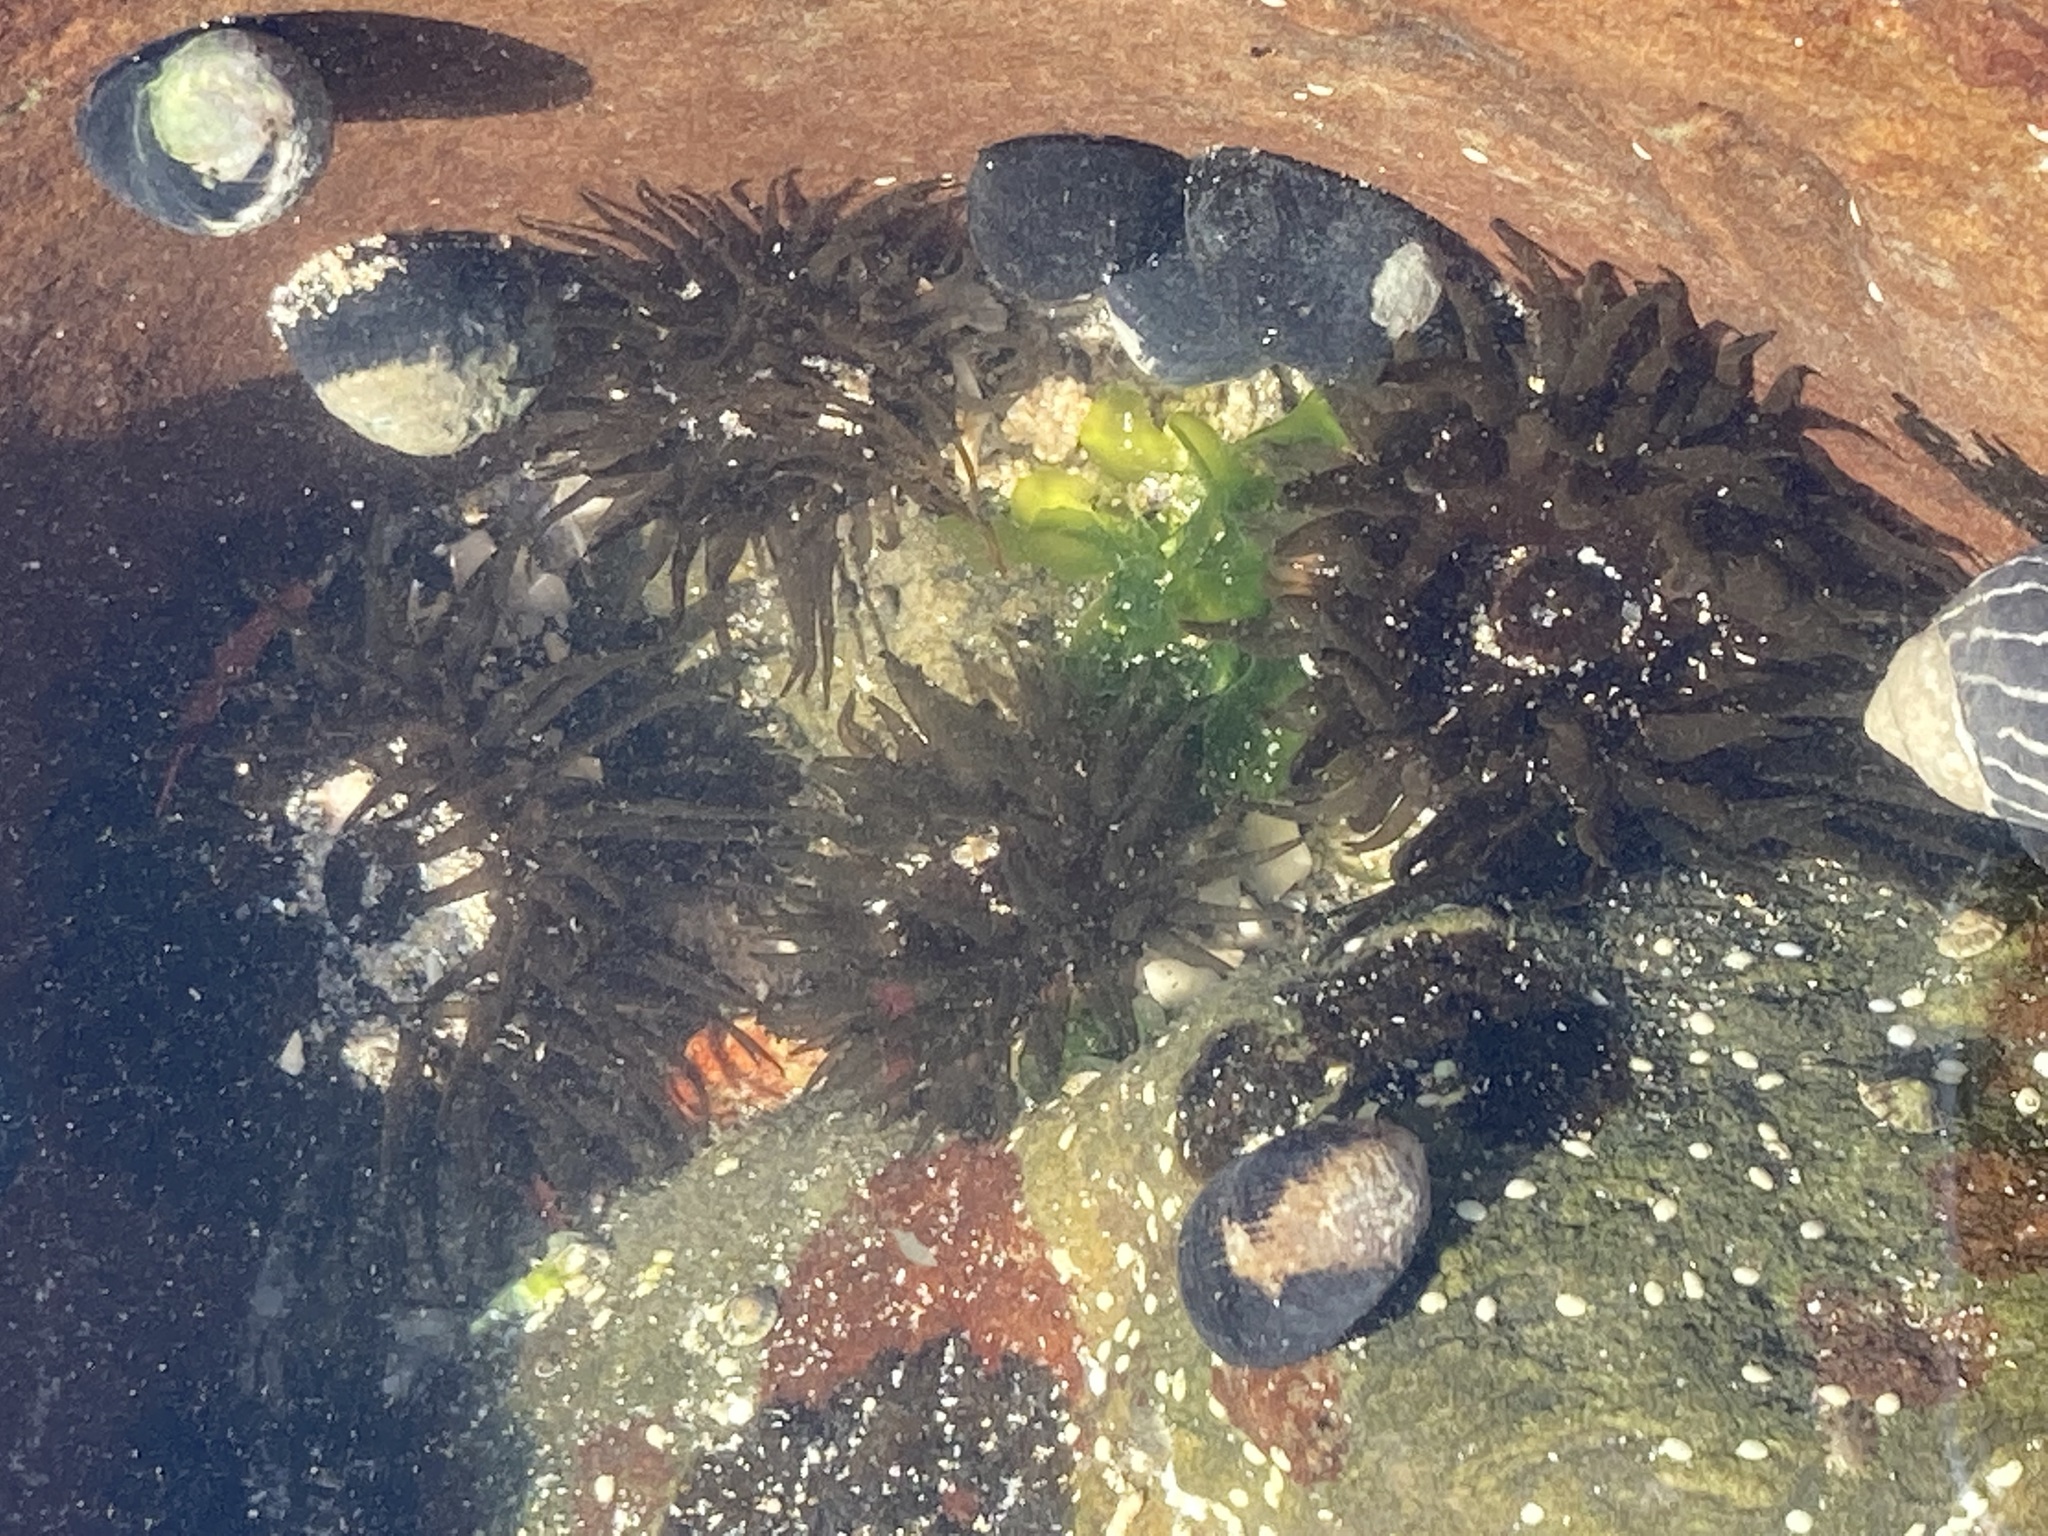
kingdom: Animalia
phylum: Cnidaria
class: Anthozoa
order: Actiniaria
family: Actiniidae
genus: Aulactinia
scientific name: Aulactinia veratra
